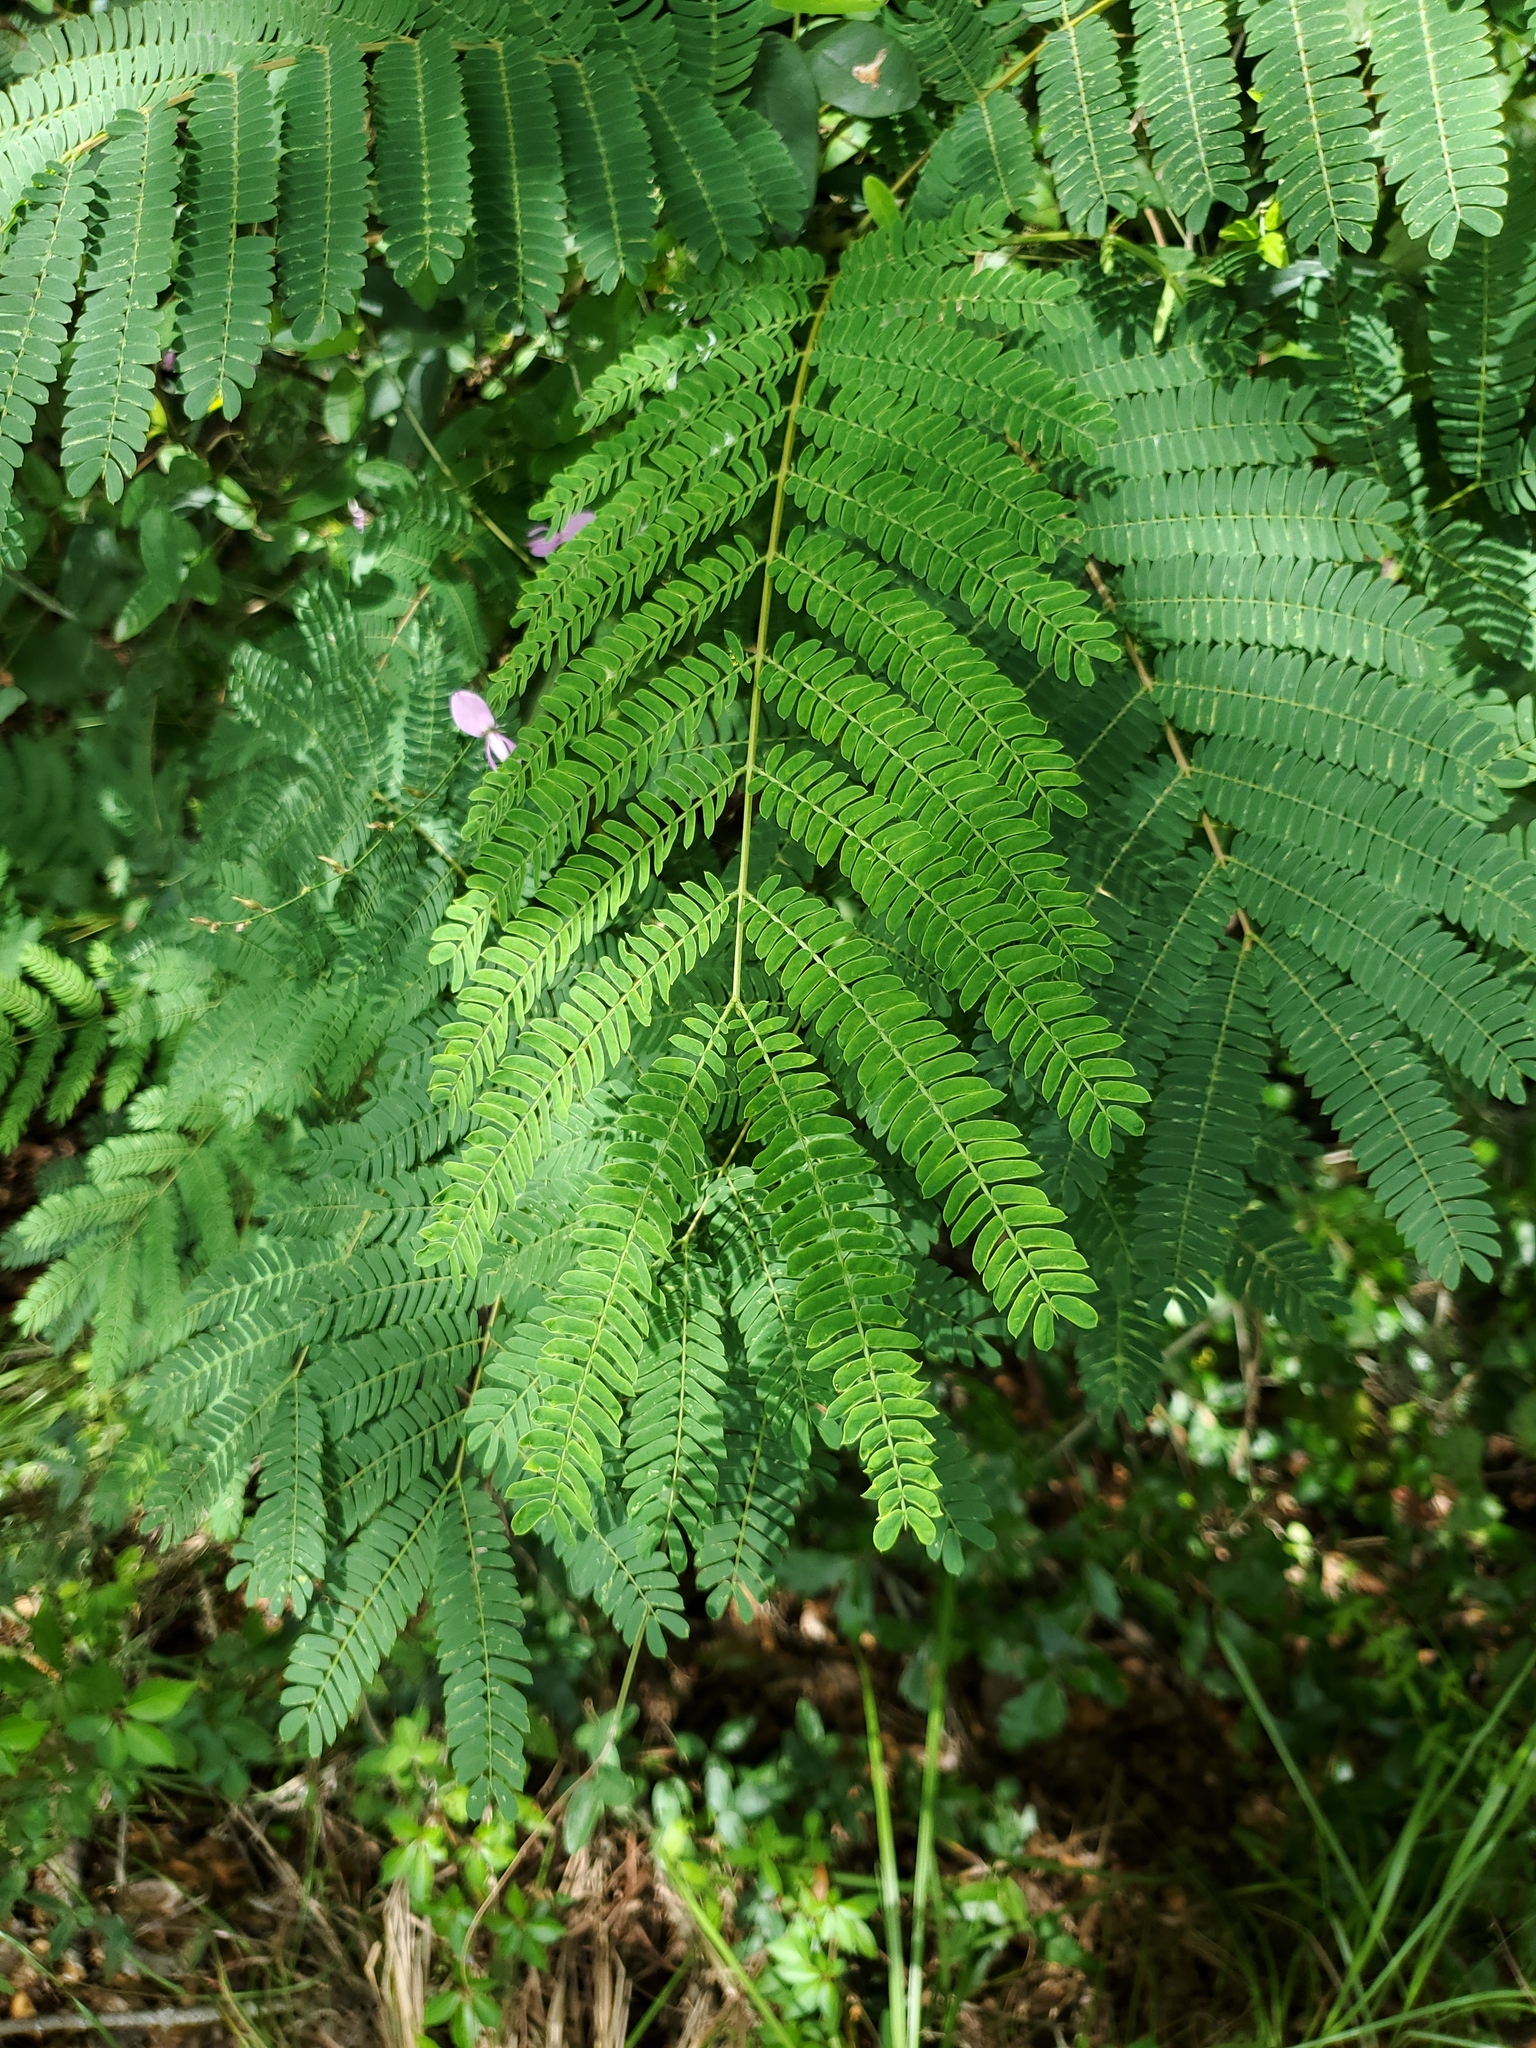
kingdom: Plantae
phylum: Tracheophyta
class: Magnoliopsida
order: Fabales
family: Fabaceae
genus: Albizia
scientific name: Albizia julibrissin
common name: Silktree
